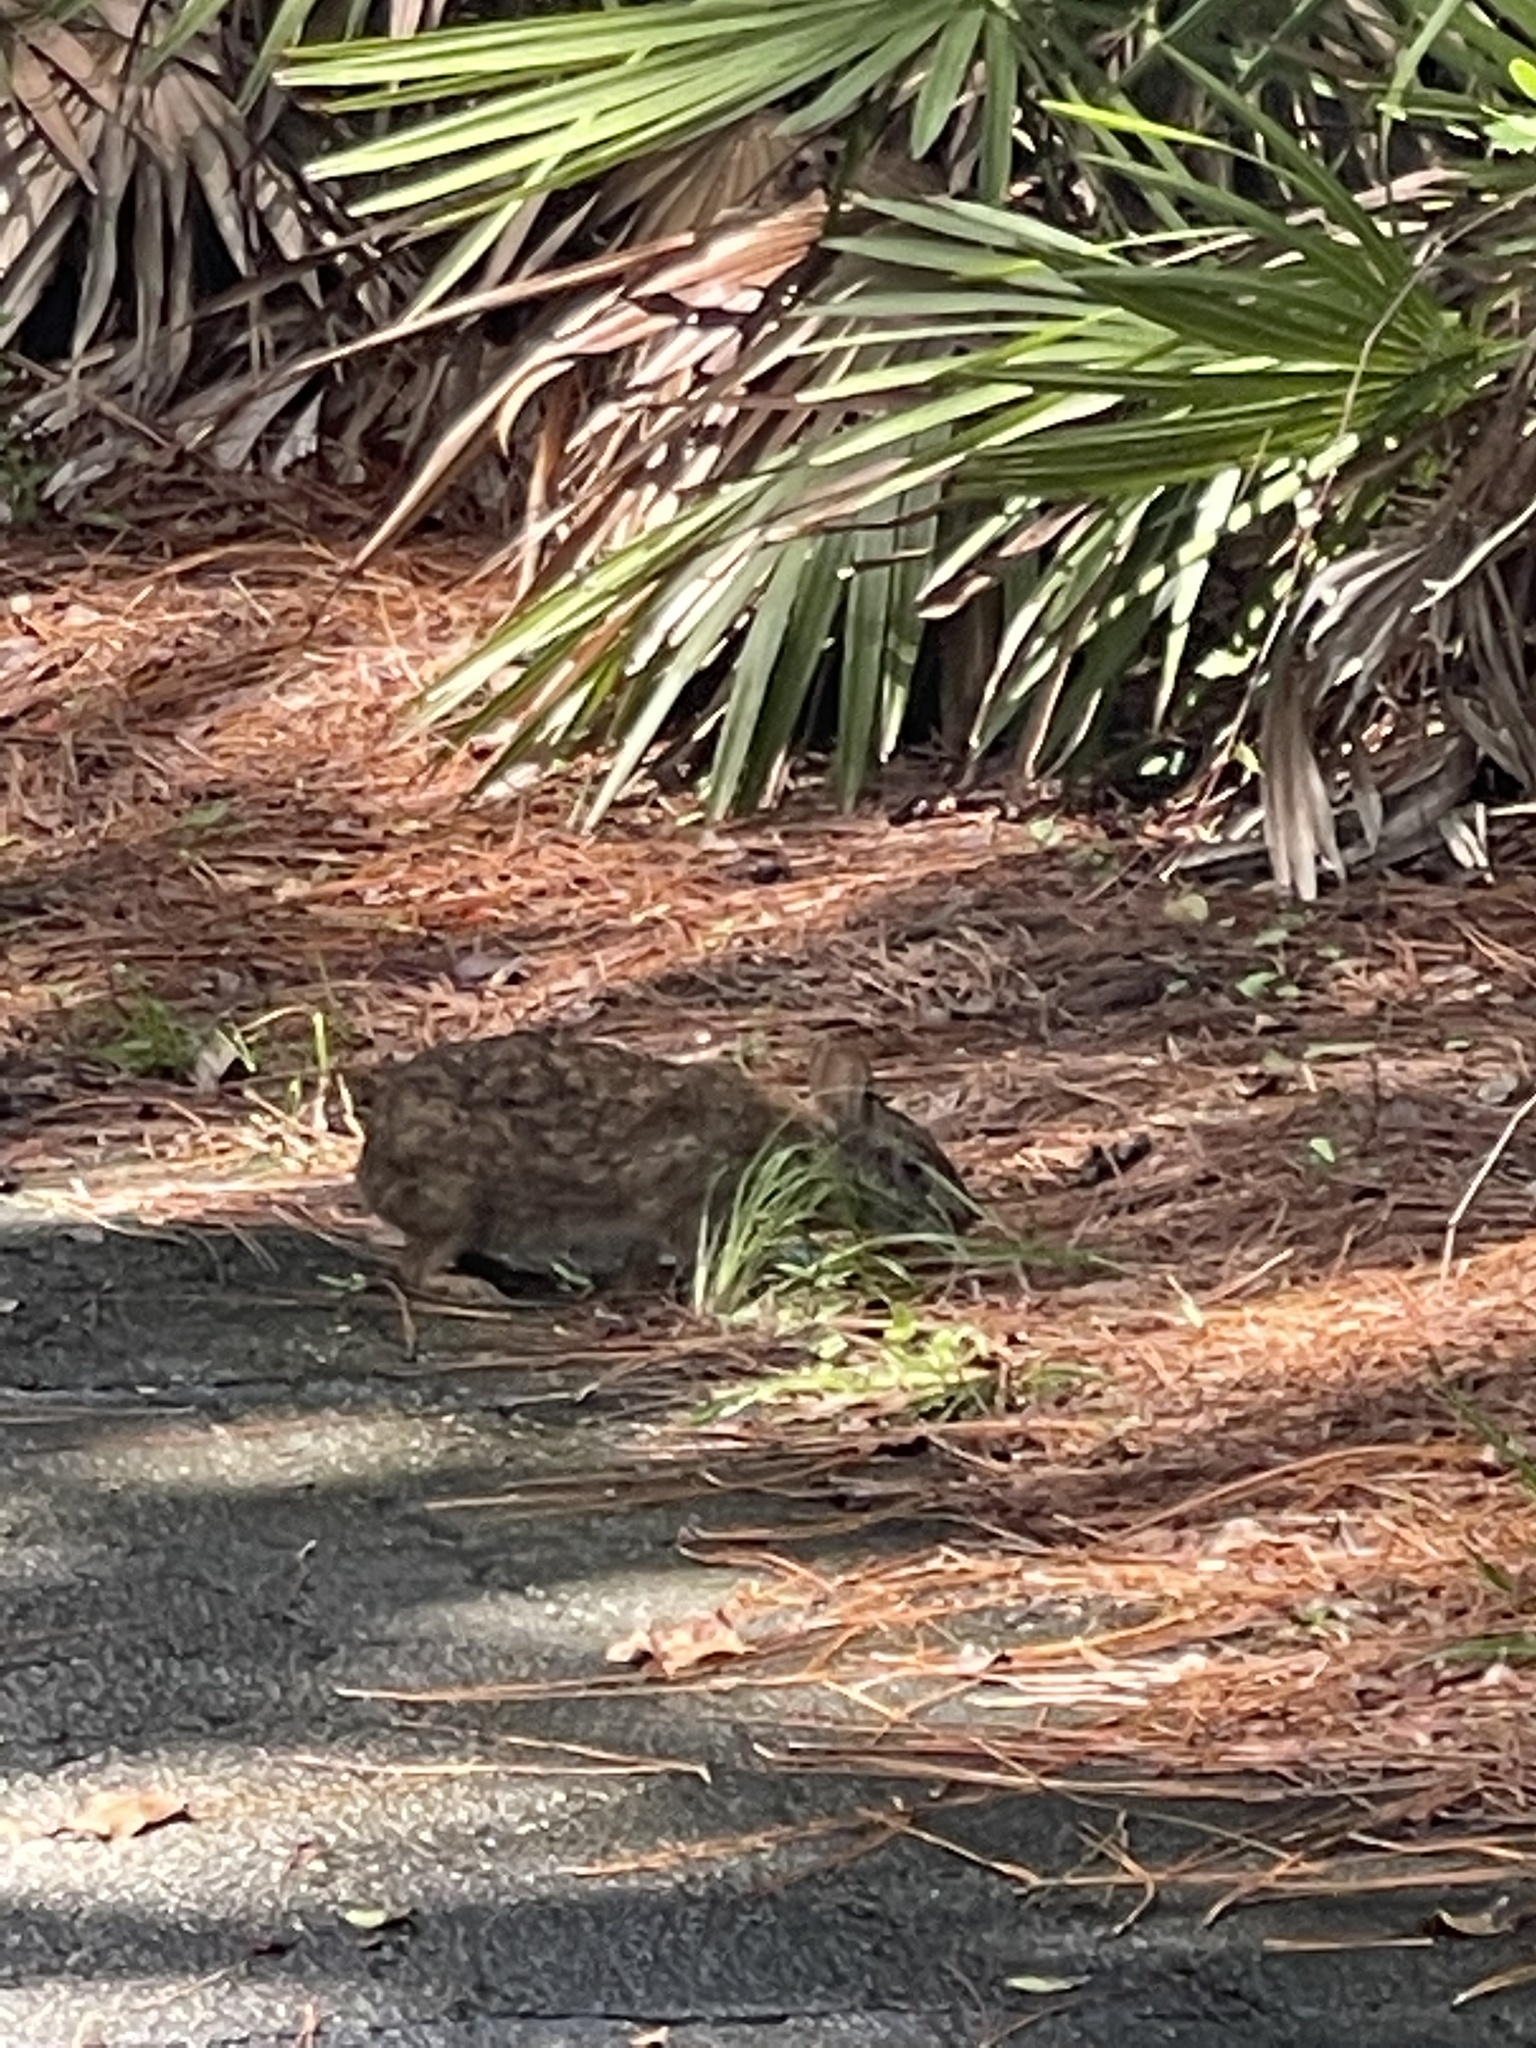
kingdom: Animalia
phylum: Chordata
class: Mammalia
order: Lagomorpha
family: Leporidae
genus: Sylvilagus
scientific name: Sylvilagus palustris
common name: Marsh rabbit
